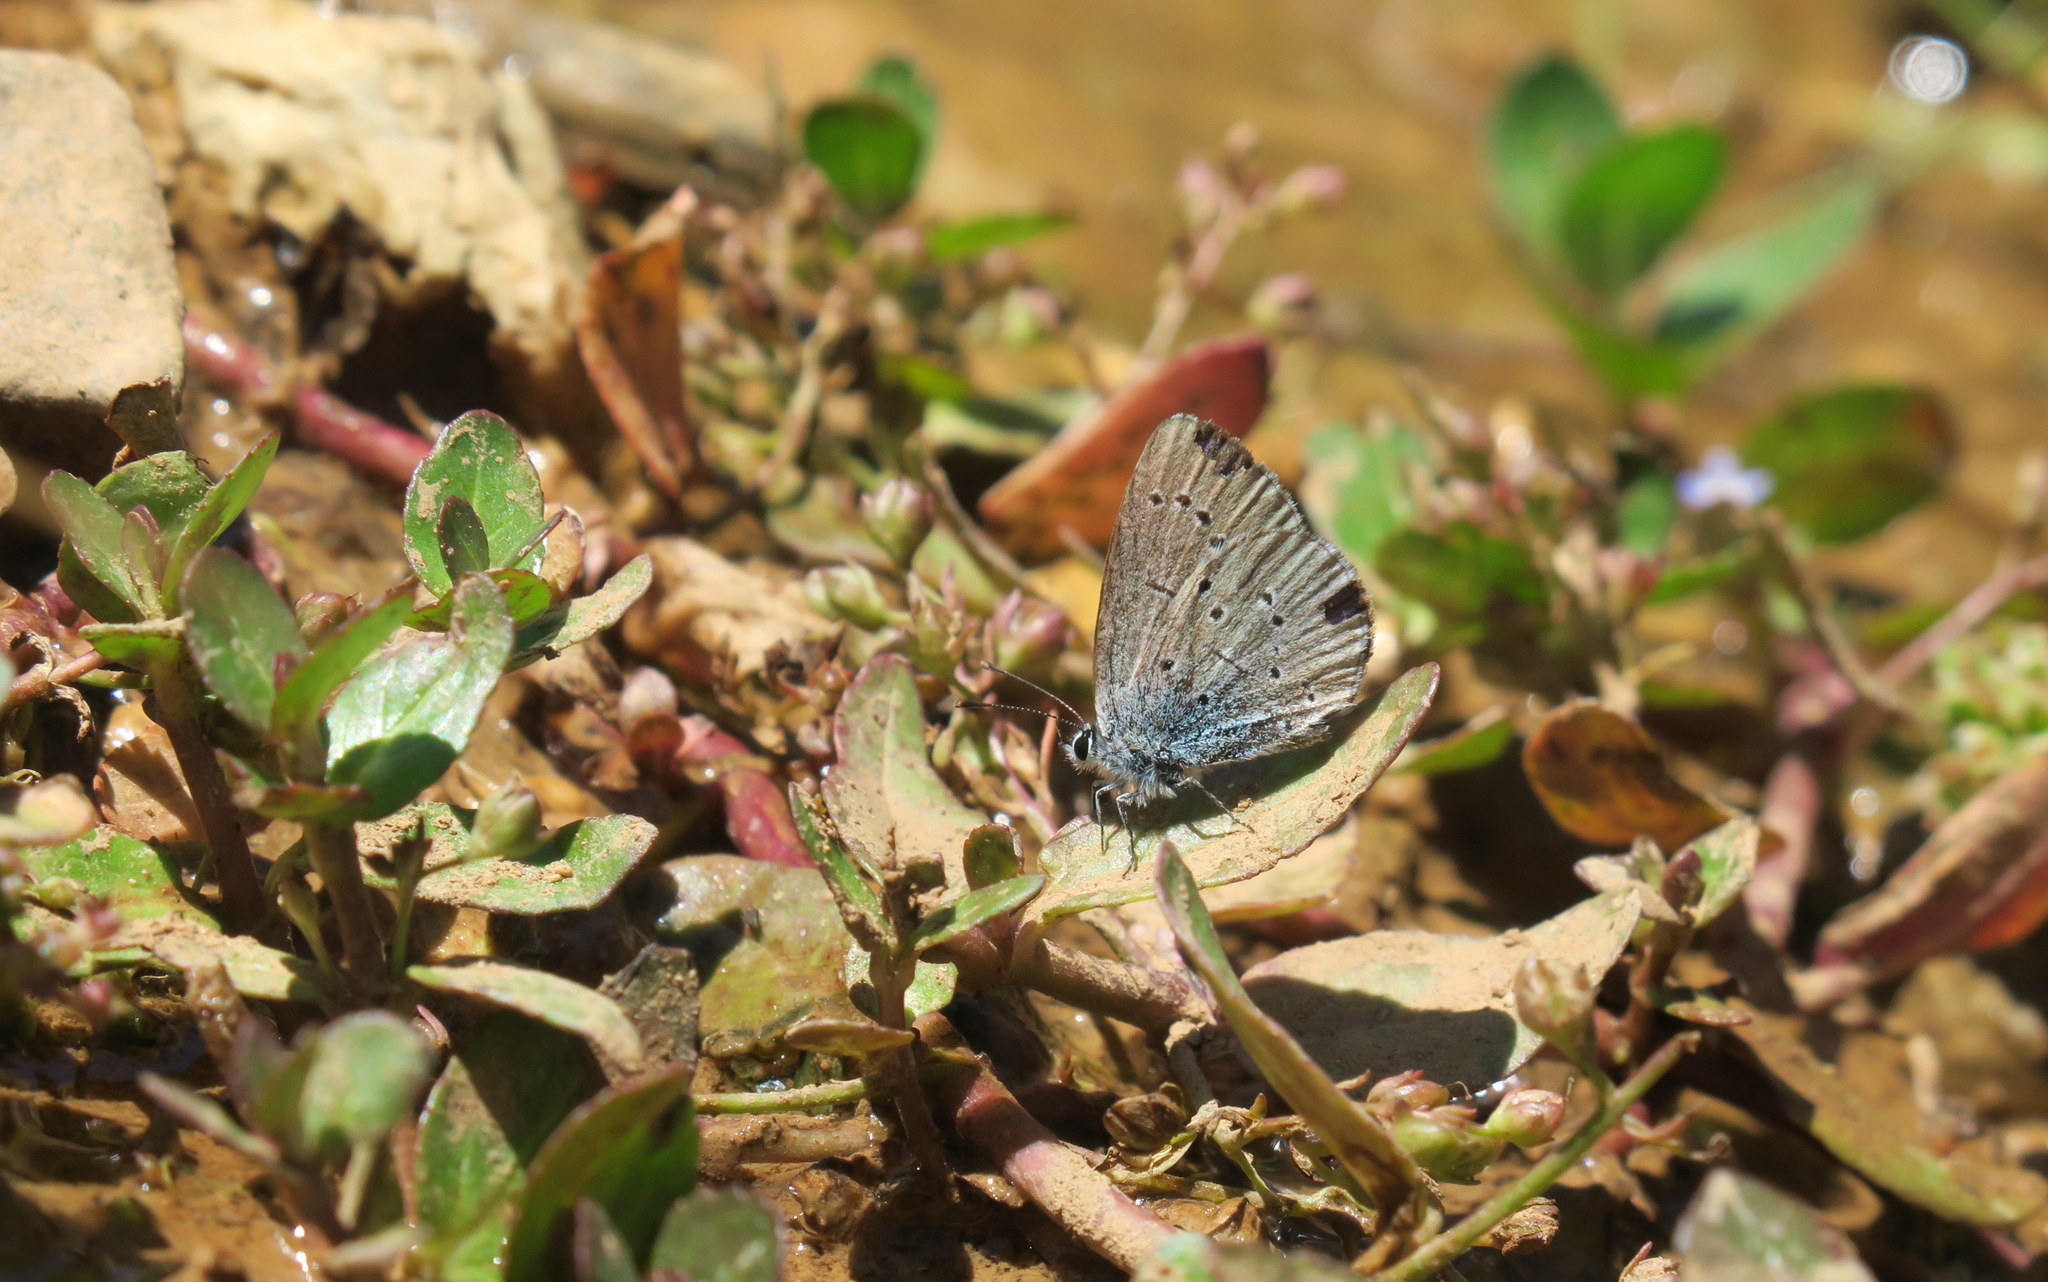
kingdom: Animalia
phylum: Arthropoda
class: Insecta
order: Lepidoptera
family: Lycaenidae
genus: Everes
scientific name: Everes sebrus
